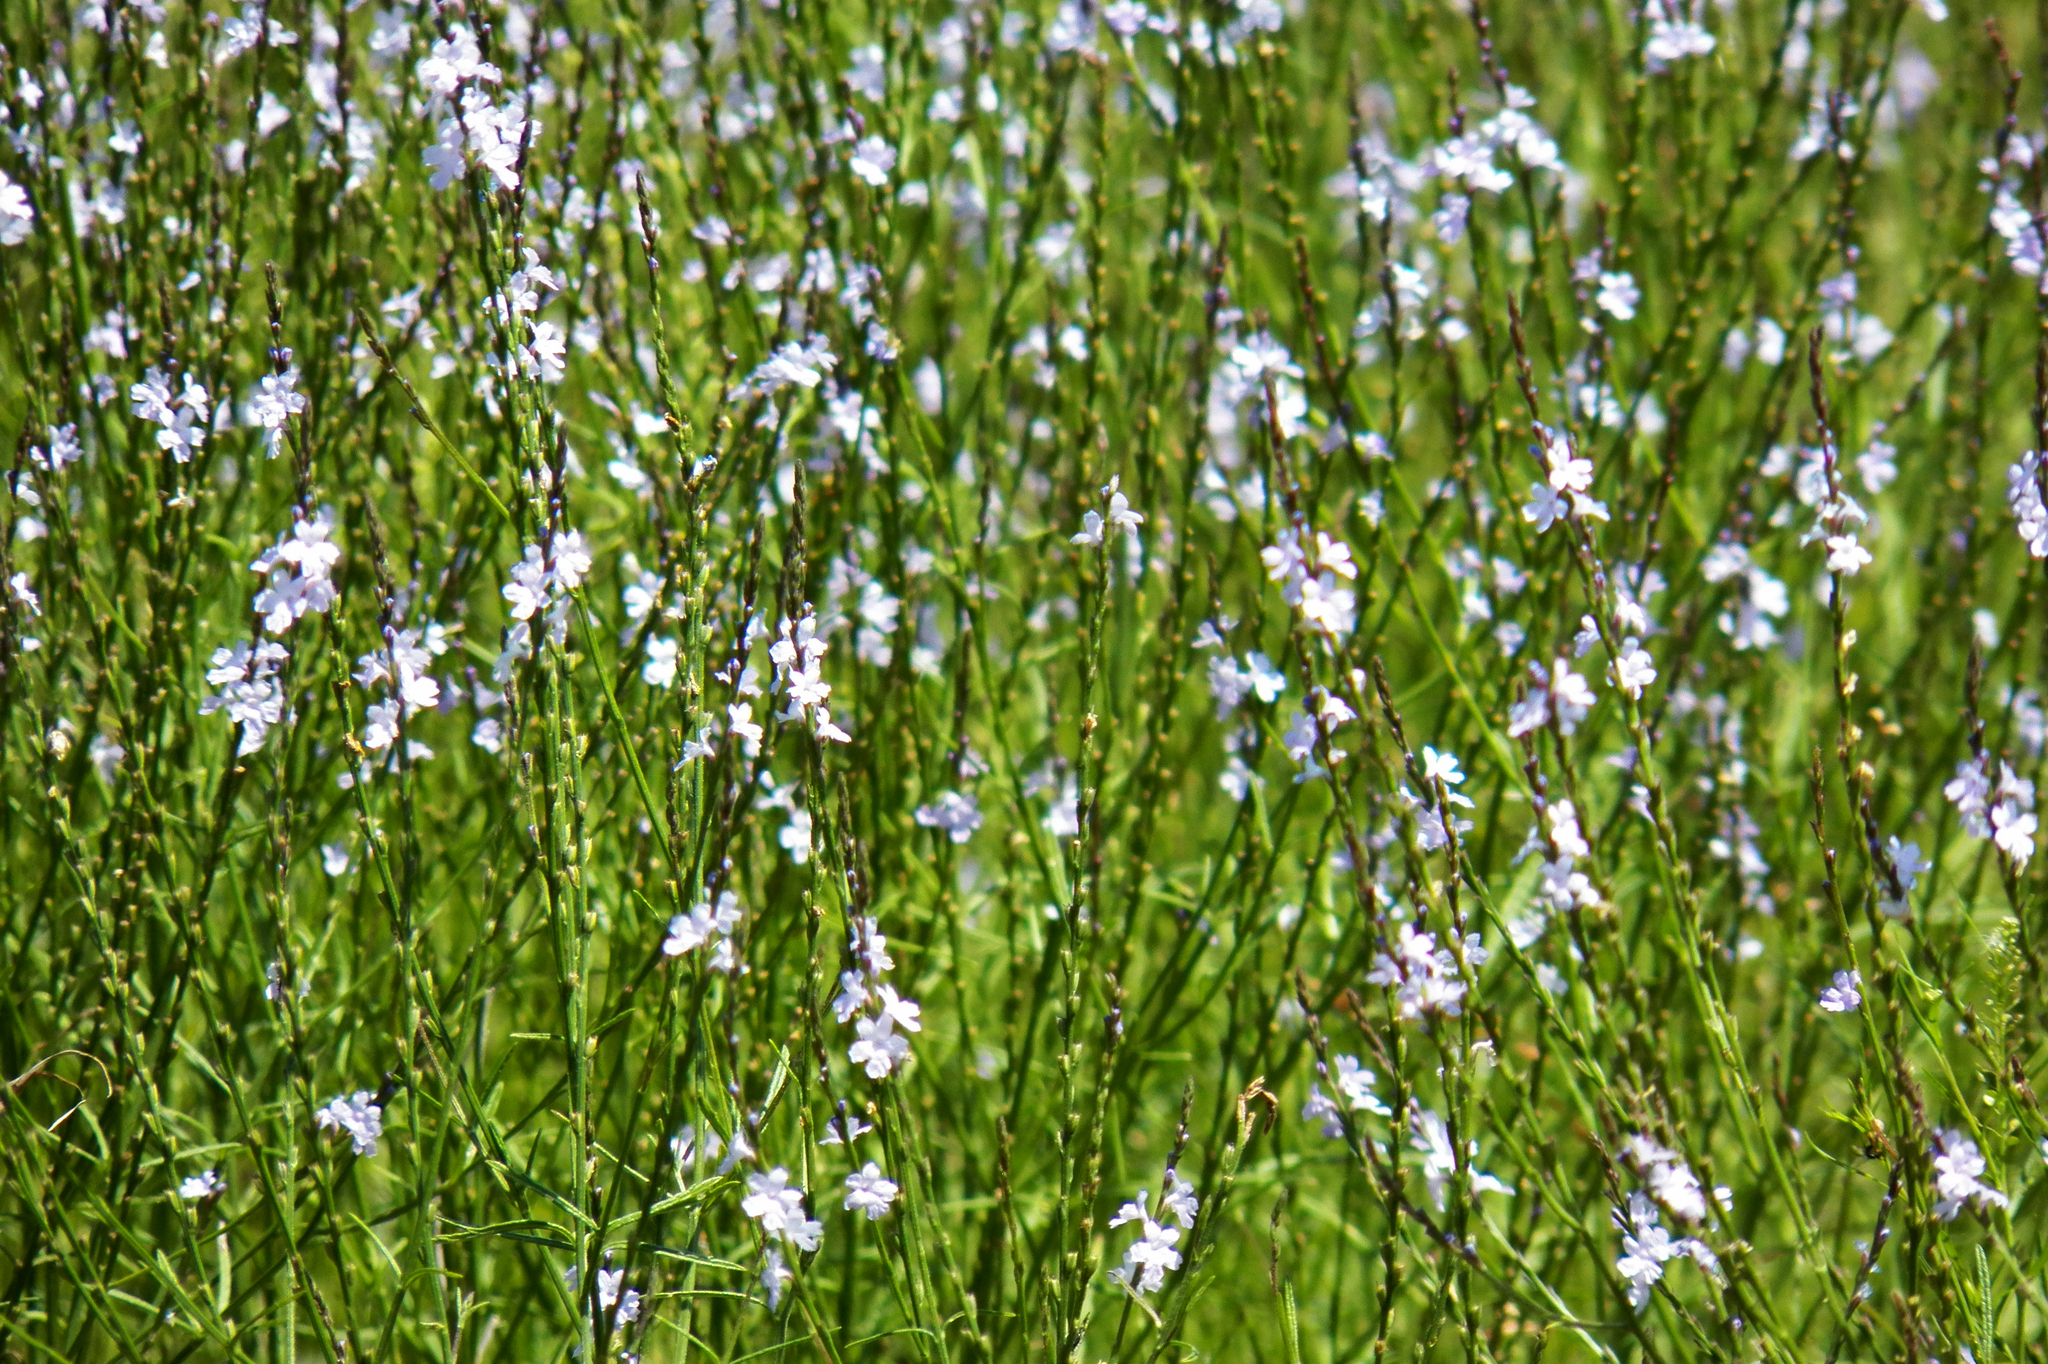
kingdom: Plantae
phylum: Tracheophyta
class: Magnoliopsida
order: Lamiales
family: Verbenaceae
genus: Verbena
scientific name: Verbena halei
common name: Texas vervain
